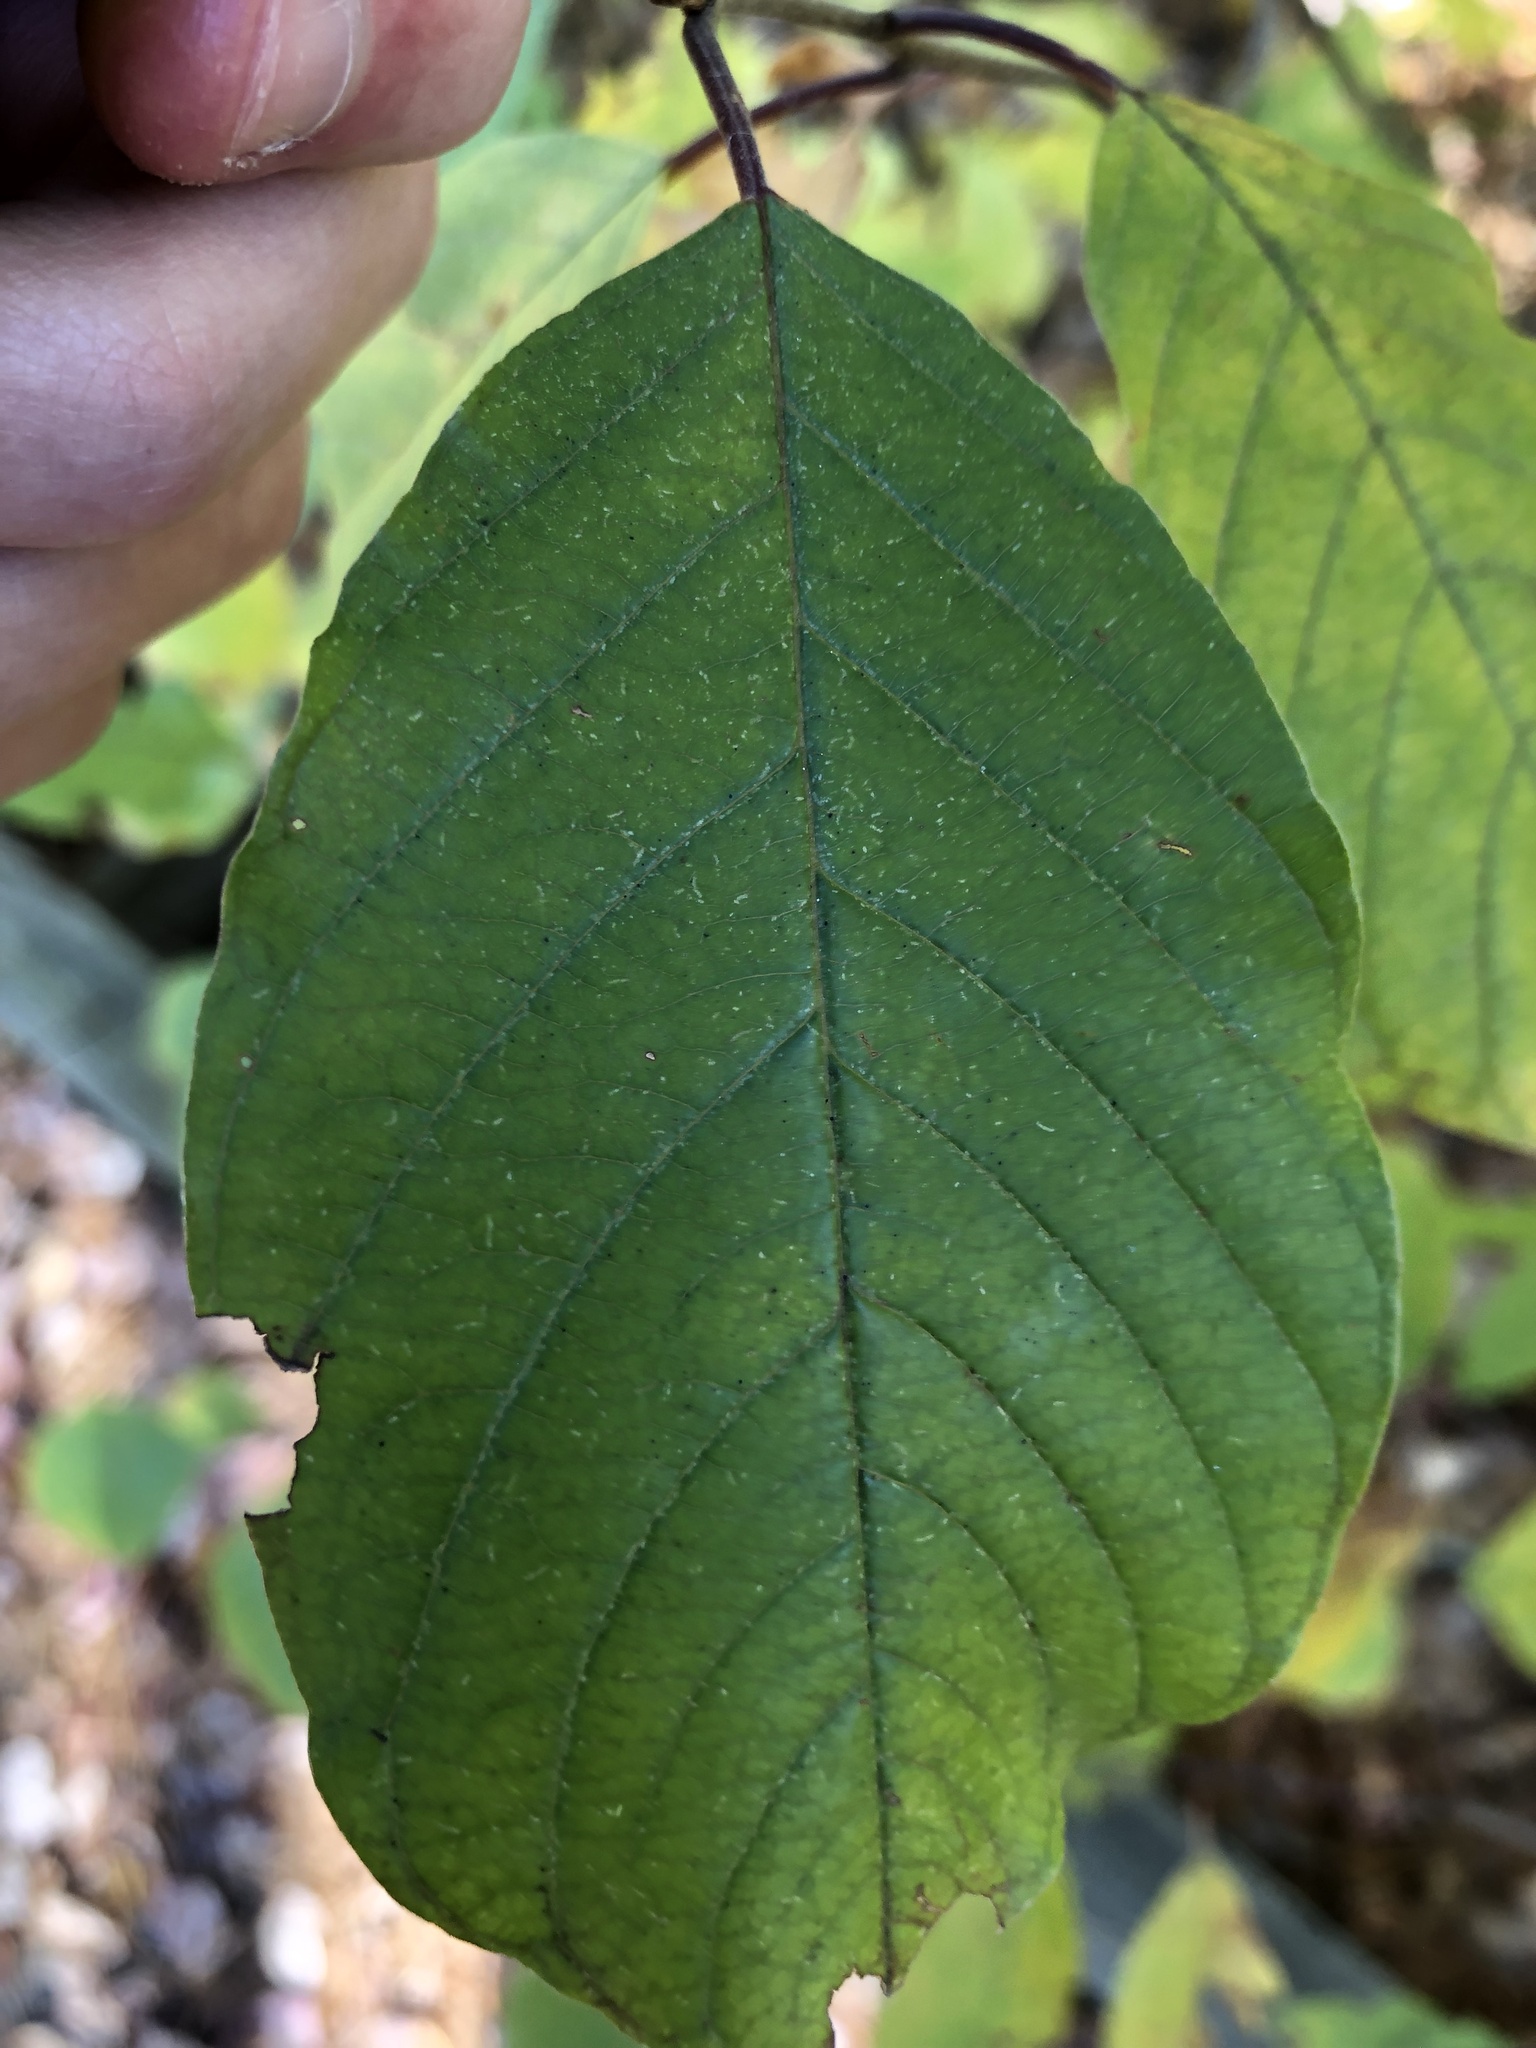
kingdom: Plantae
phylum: Tracheophyta
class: Magnoliopsida
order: Rosales
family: Rhamnaceae
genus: Frangula
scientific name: Frangula alnus
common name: Alder buckthorn
